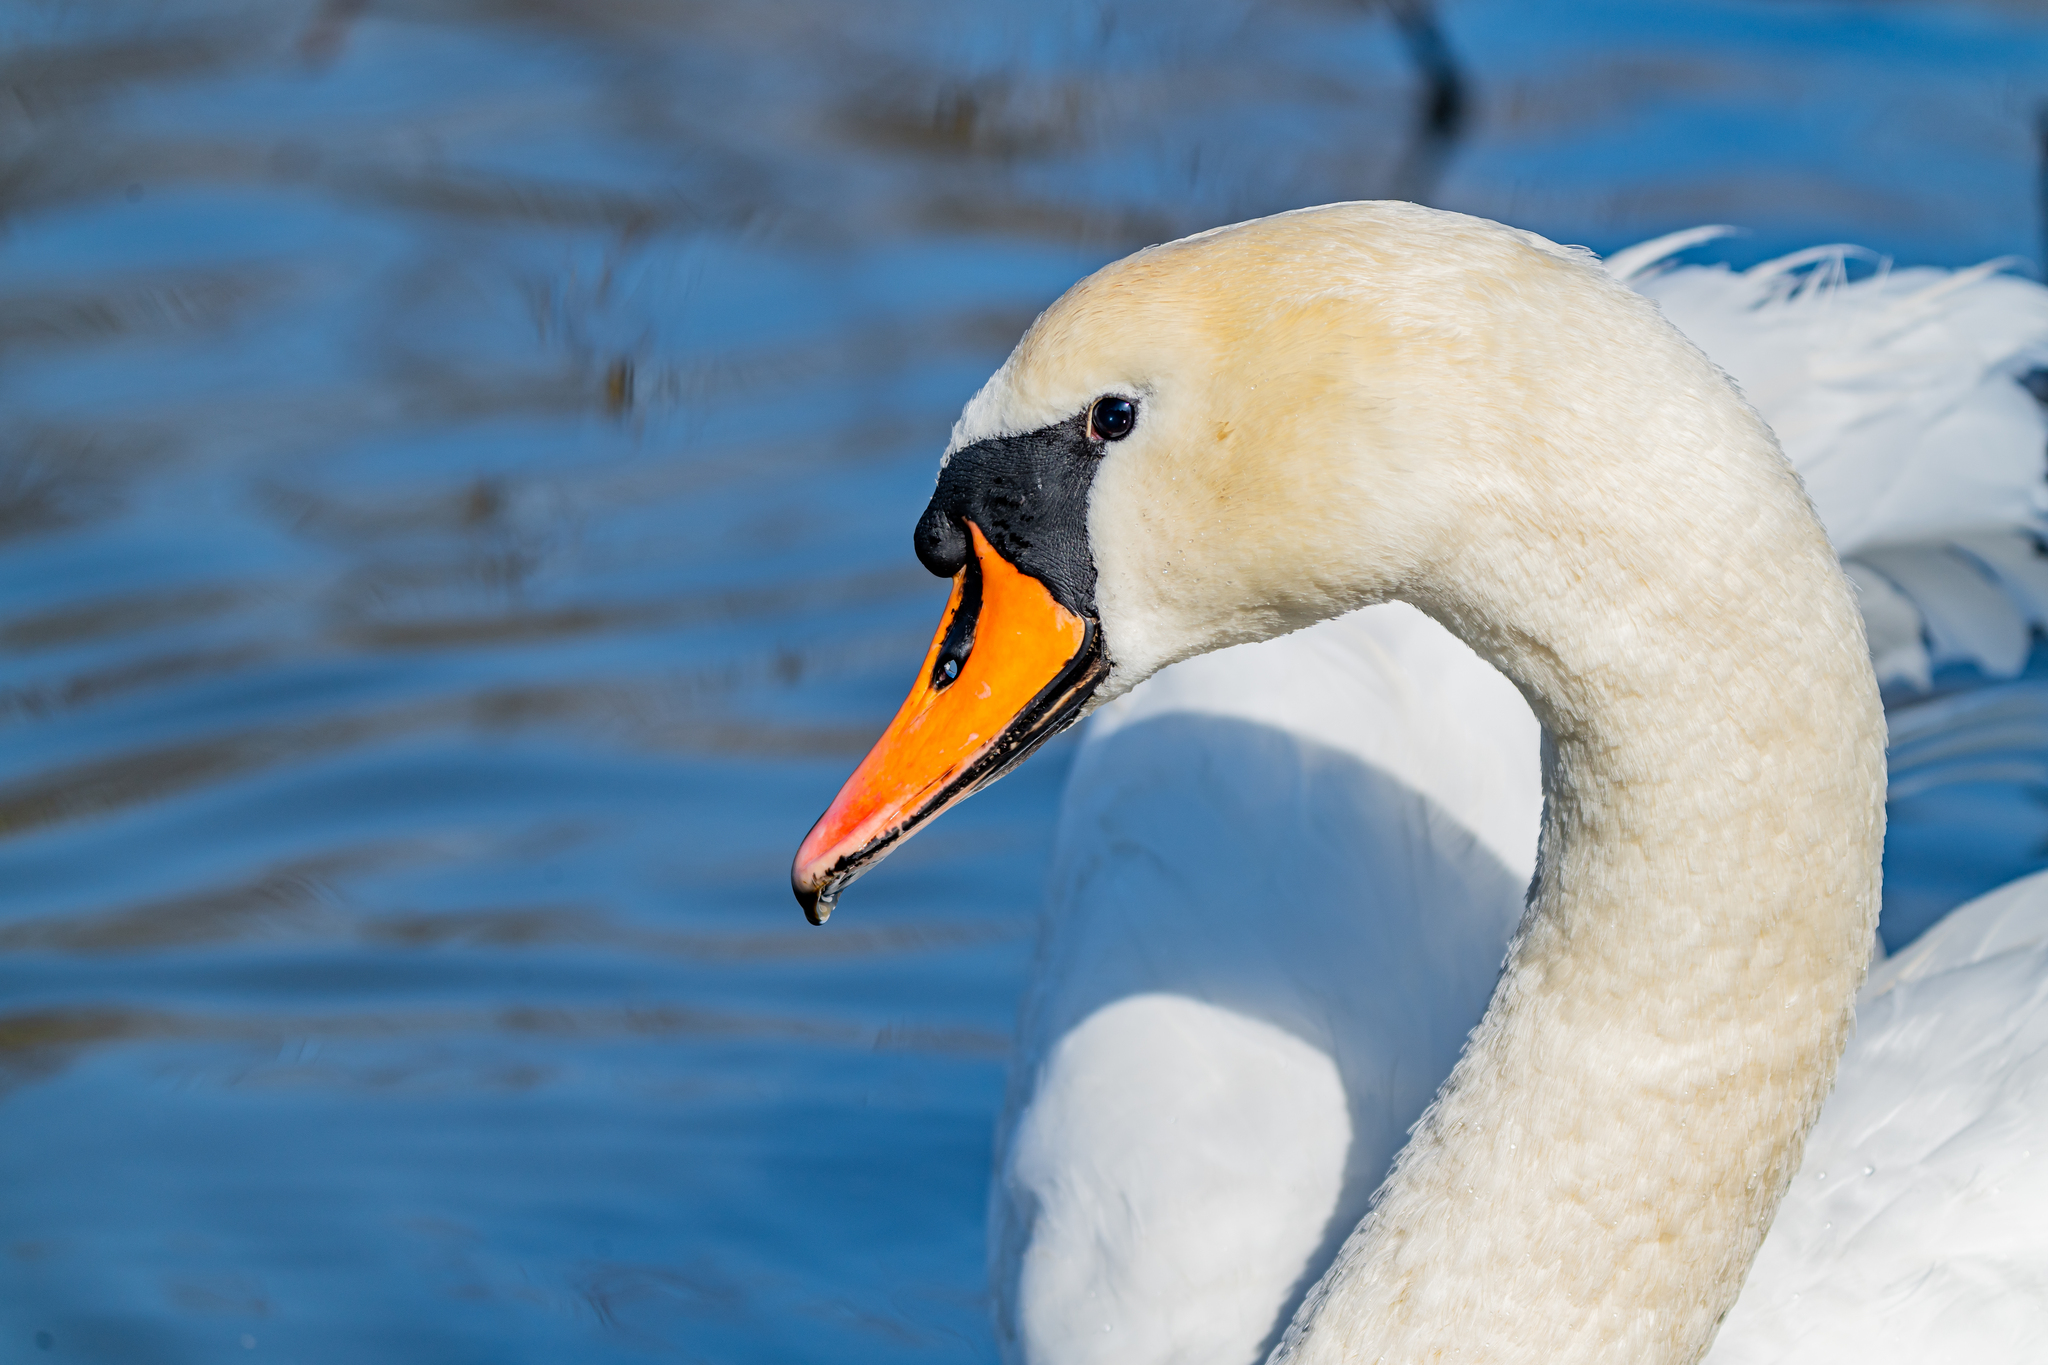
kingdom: Animalia
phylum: Chordata
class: Aves
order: Anseriformes
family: Anatidae
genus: Cygnus
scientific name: Cygnus olor
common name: Mute swan
